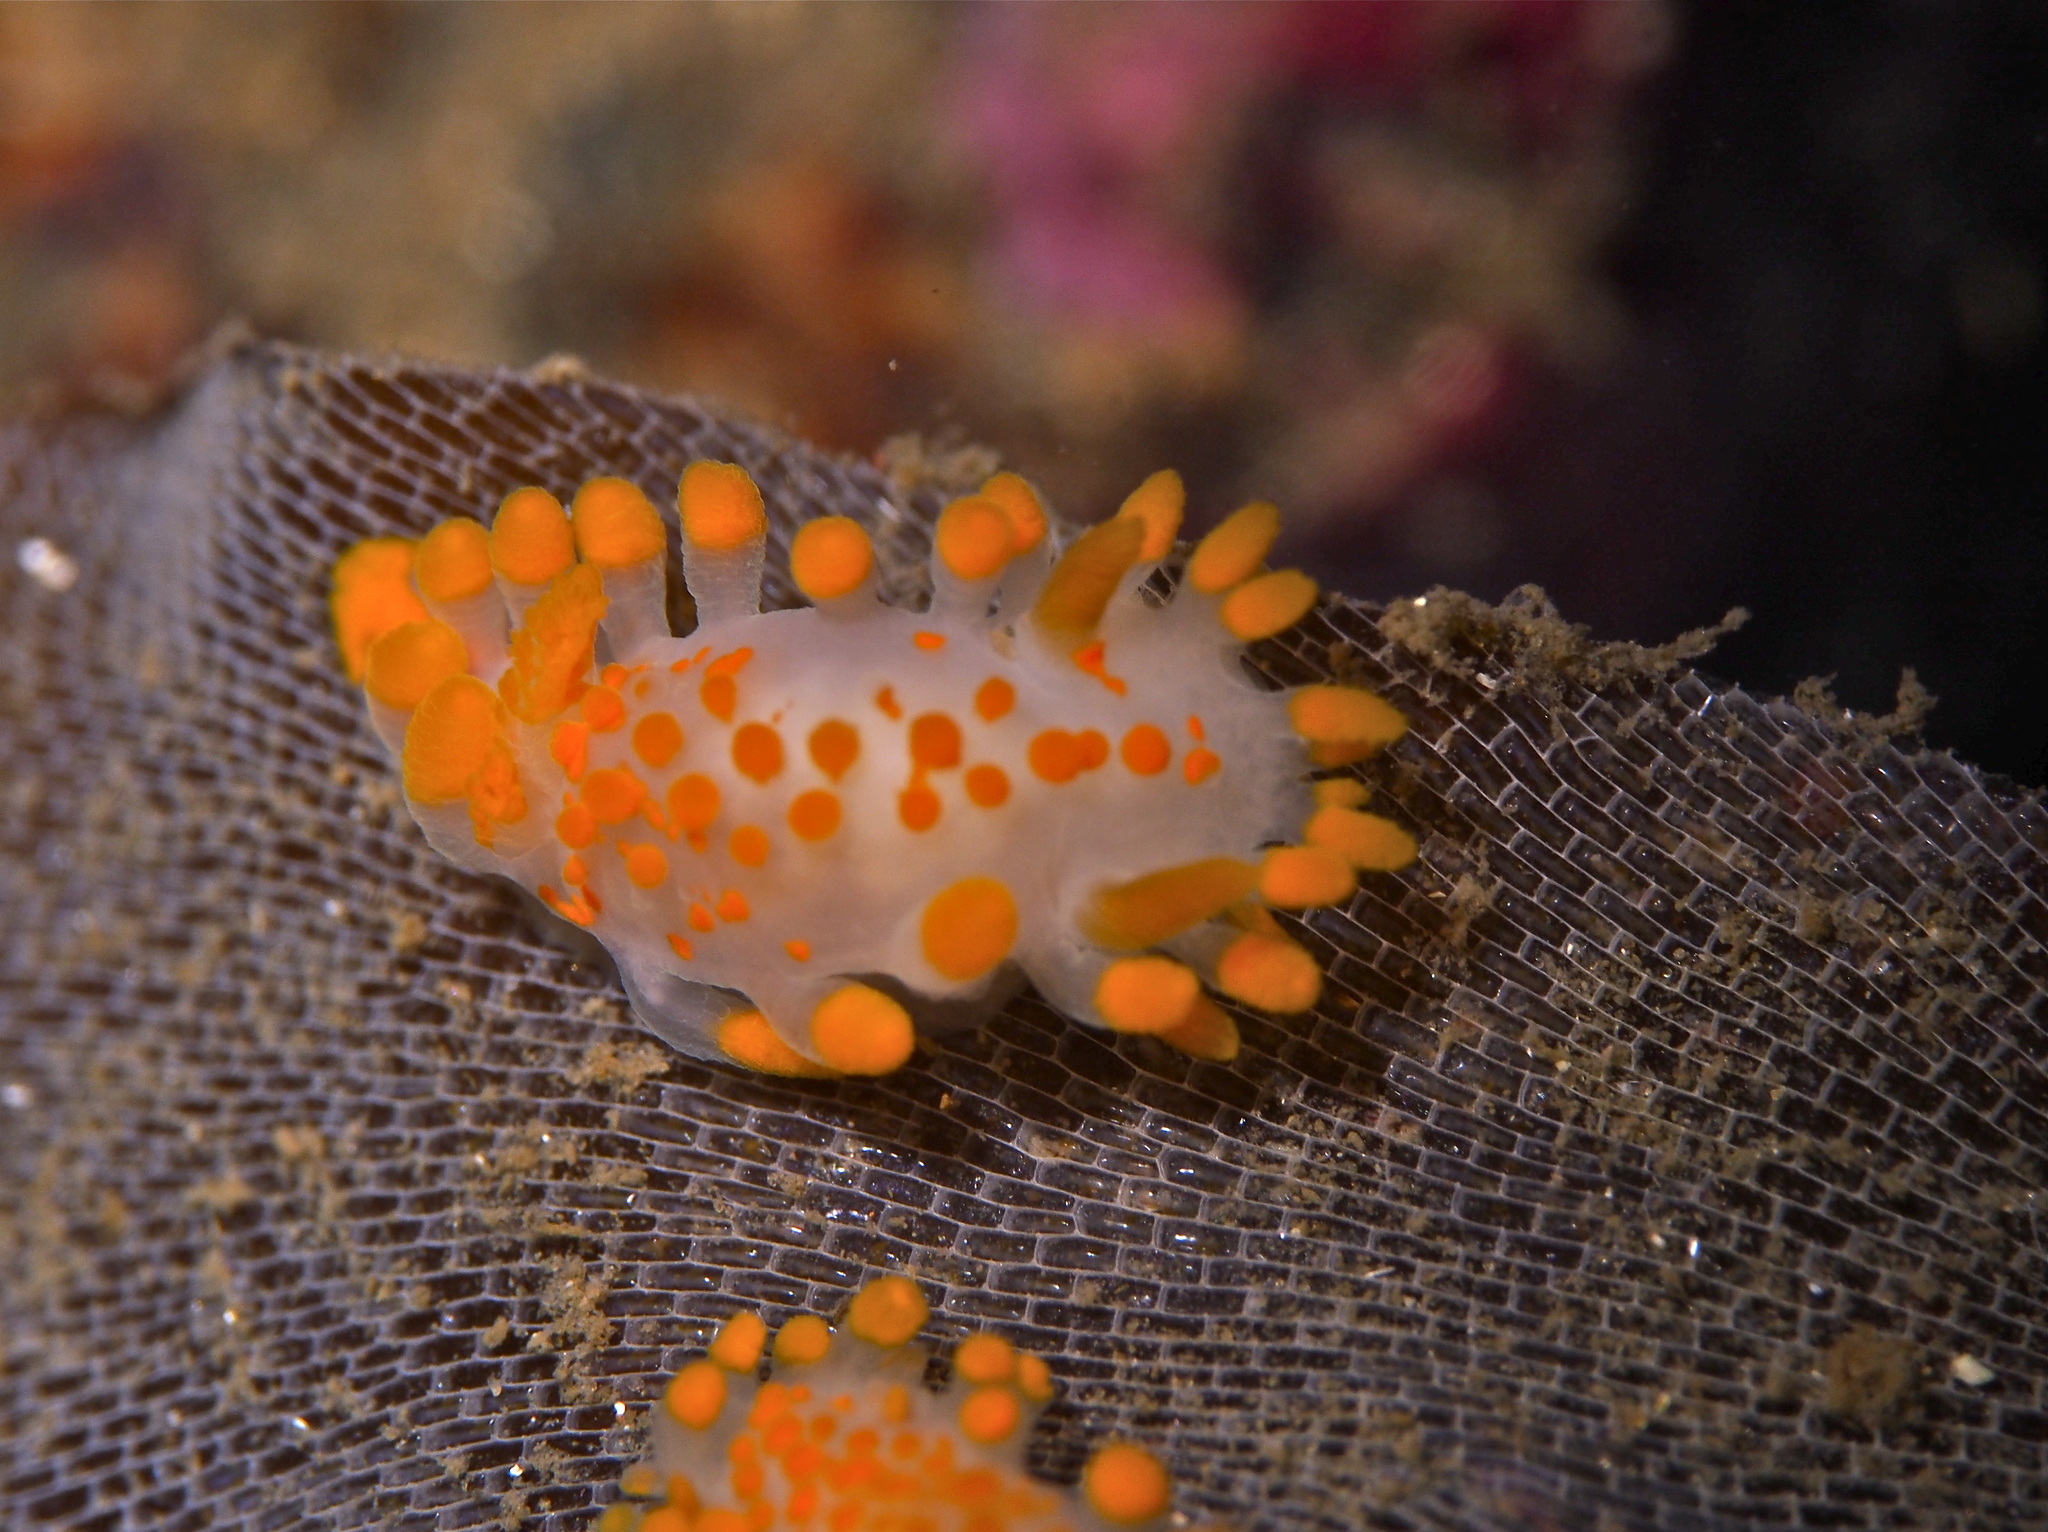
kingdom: Animalia
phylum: Mollusca
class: Gastropoda
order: Nudibranchia
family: Polyceridae
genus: Limacia
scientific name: Limacia clavigera
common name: Orange-clubbed sea slug
